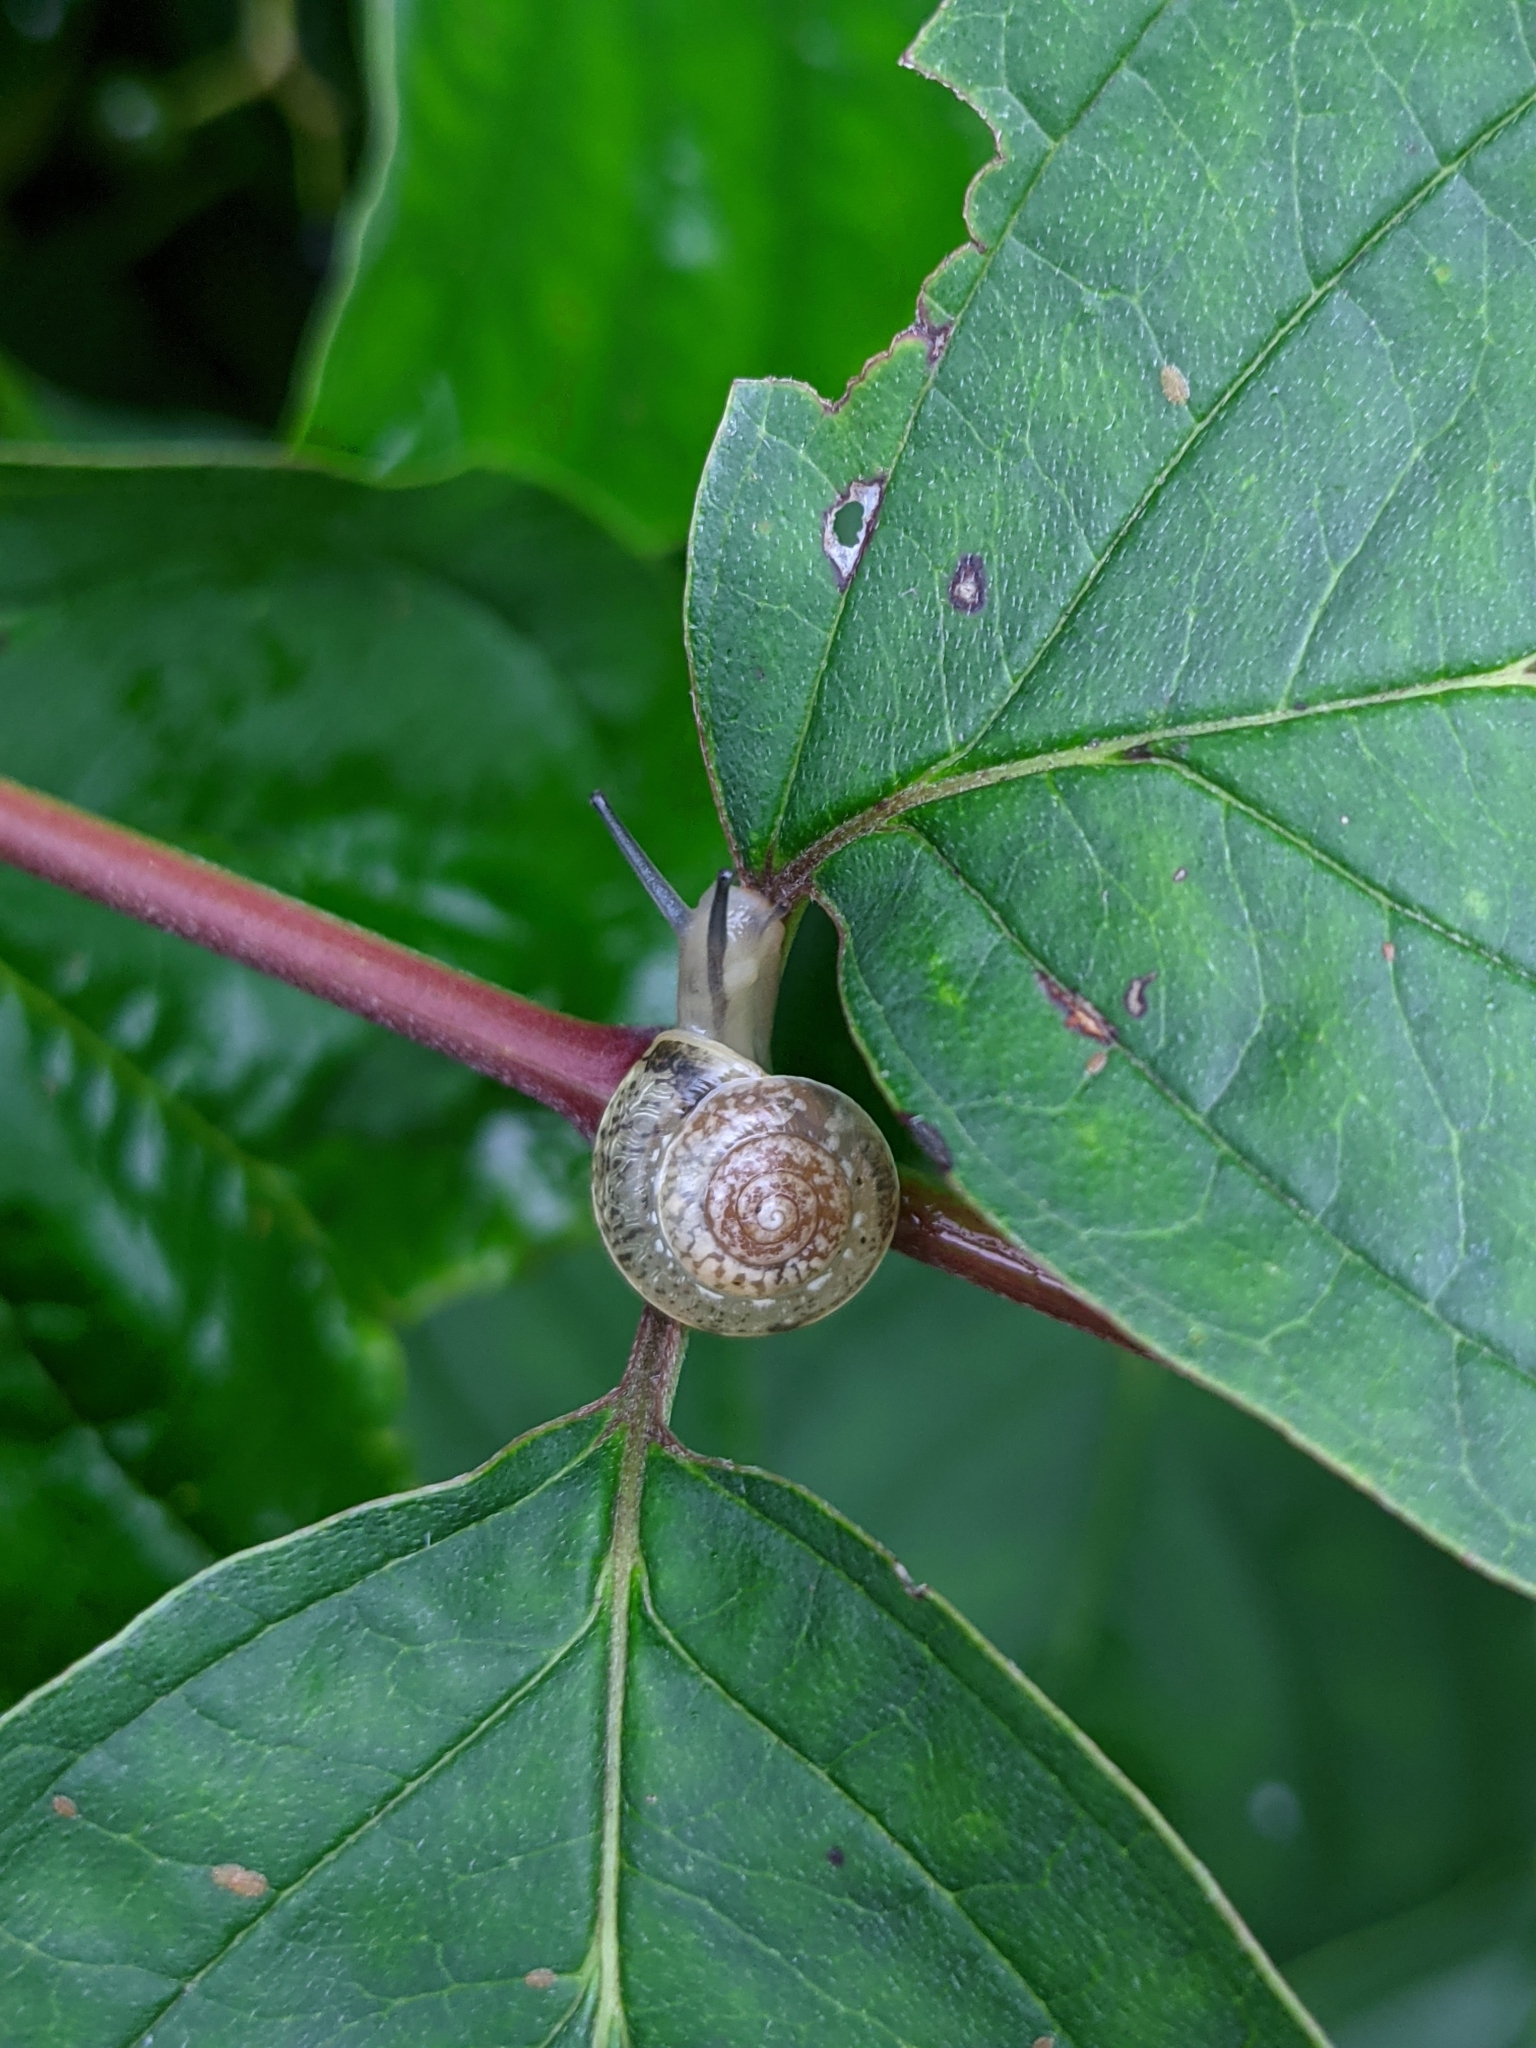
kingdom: Animalia
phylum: Mollusca
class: Gastropoda
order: Stylommatophora
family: Hygromiidae
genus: Hygromia
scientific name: Hygromia cinctella
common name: Girdled snail
